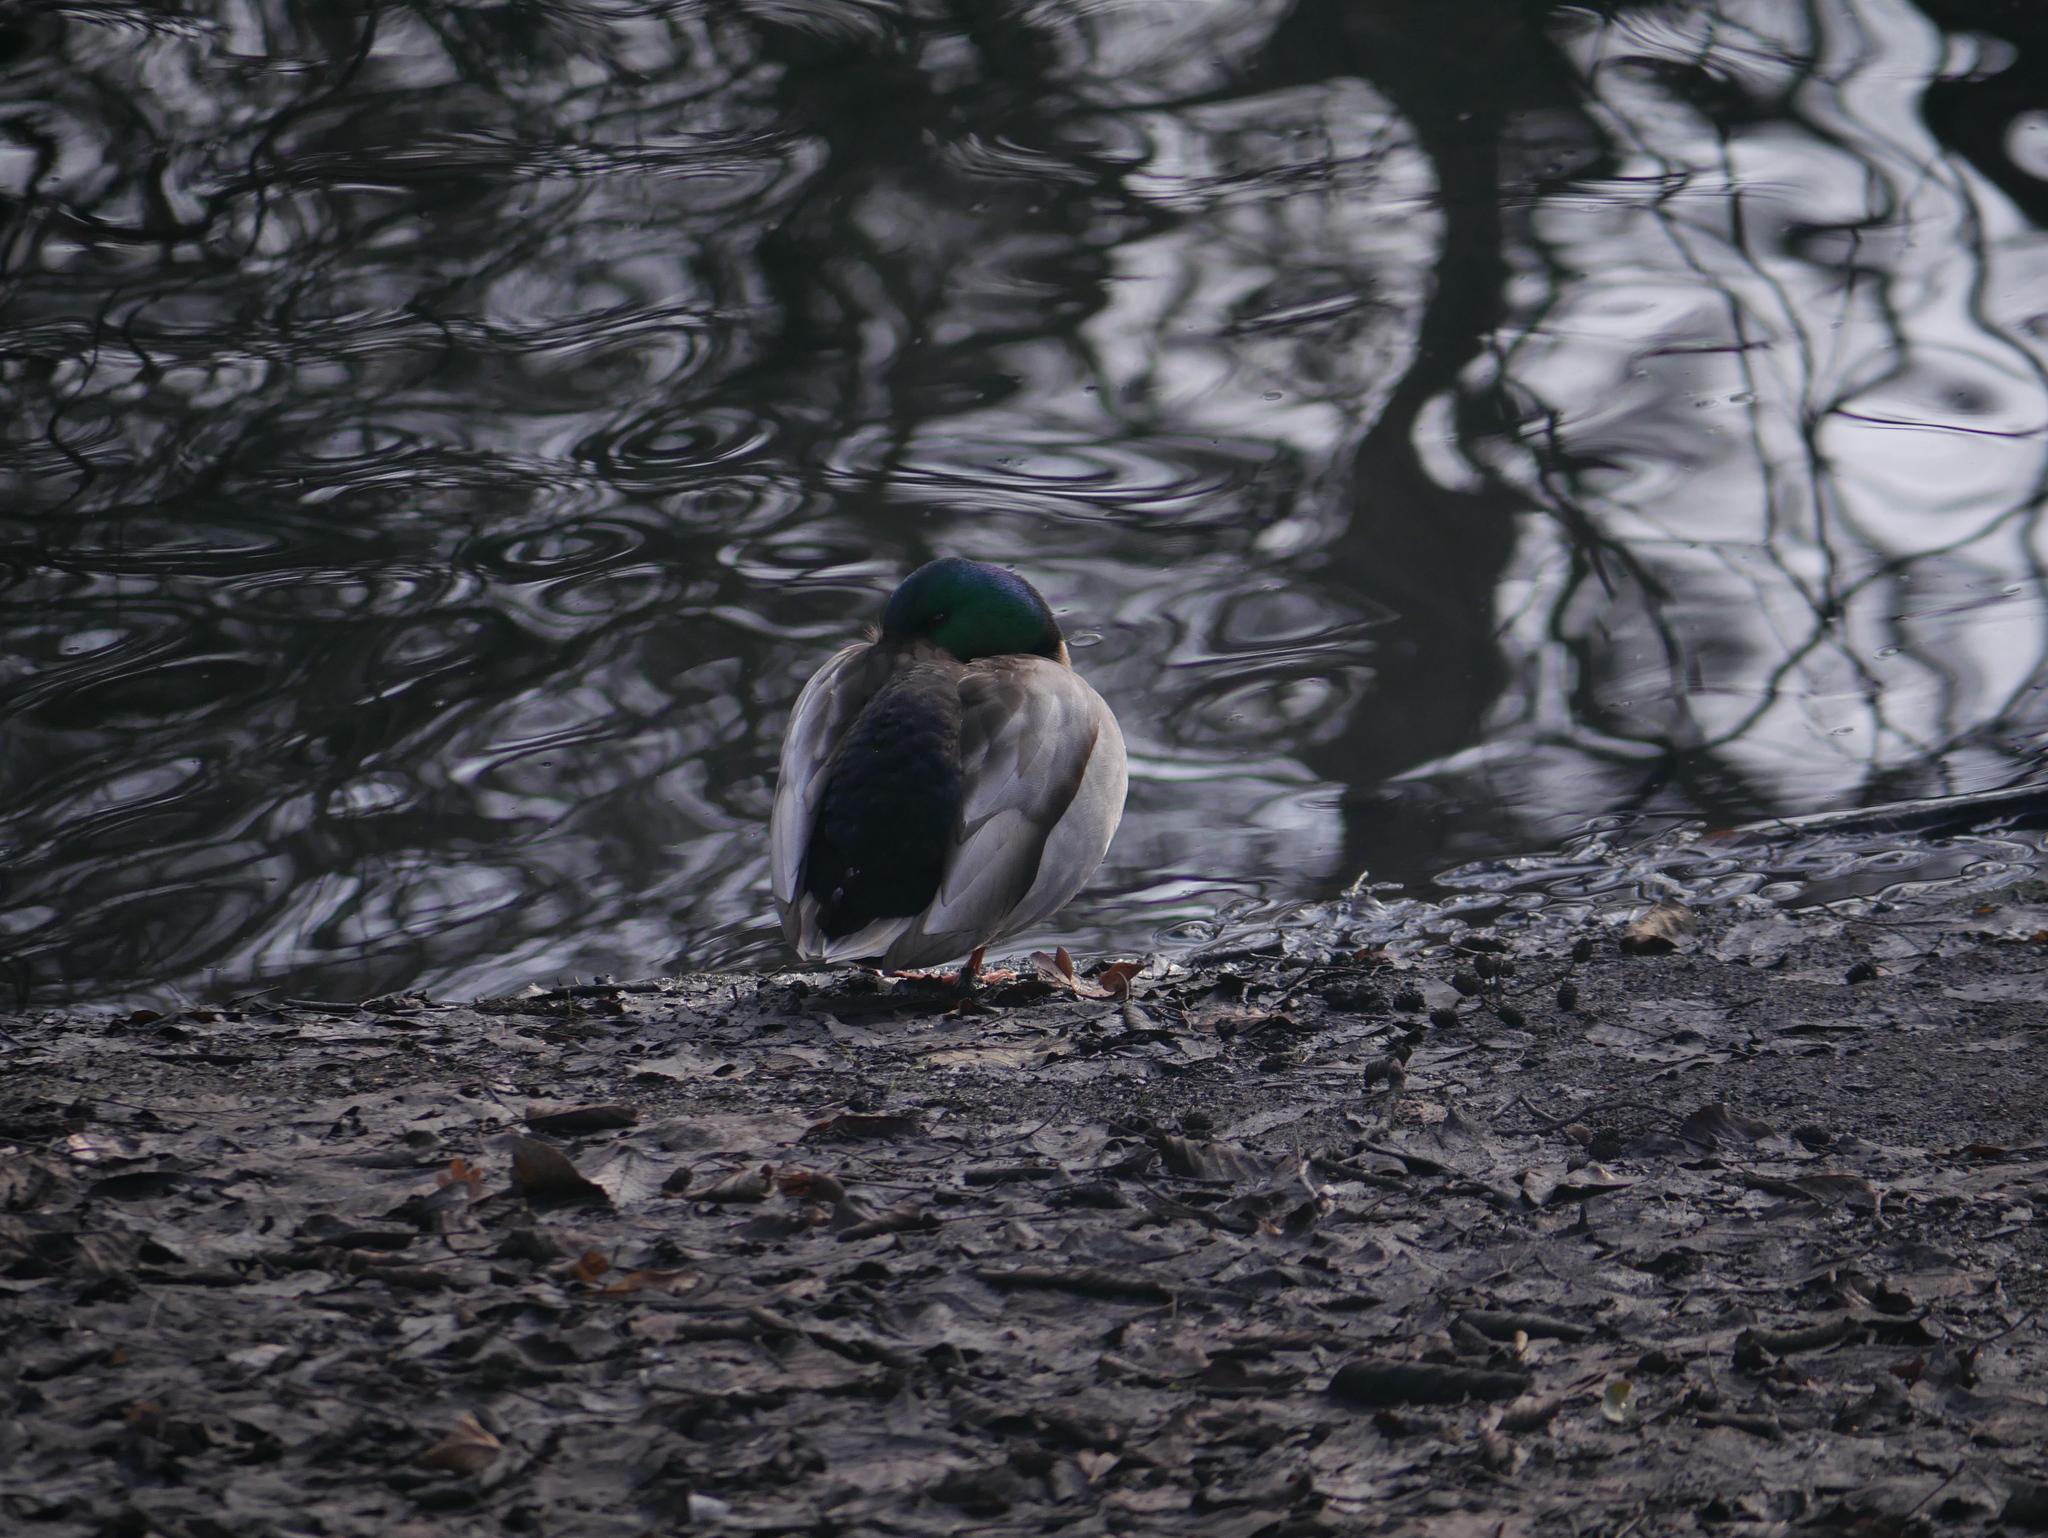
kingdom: Animalia
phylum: Chordata
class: Aves
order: Anseriformes
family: Anatidae
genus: Anas
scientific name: Anas platyrhynchos
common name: Mallard
